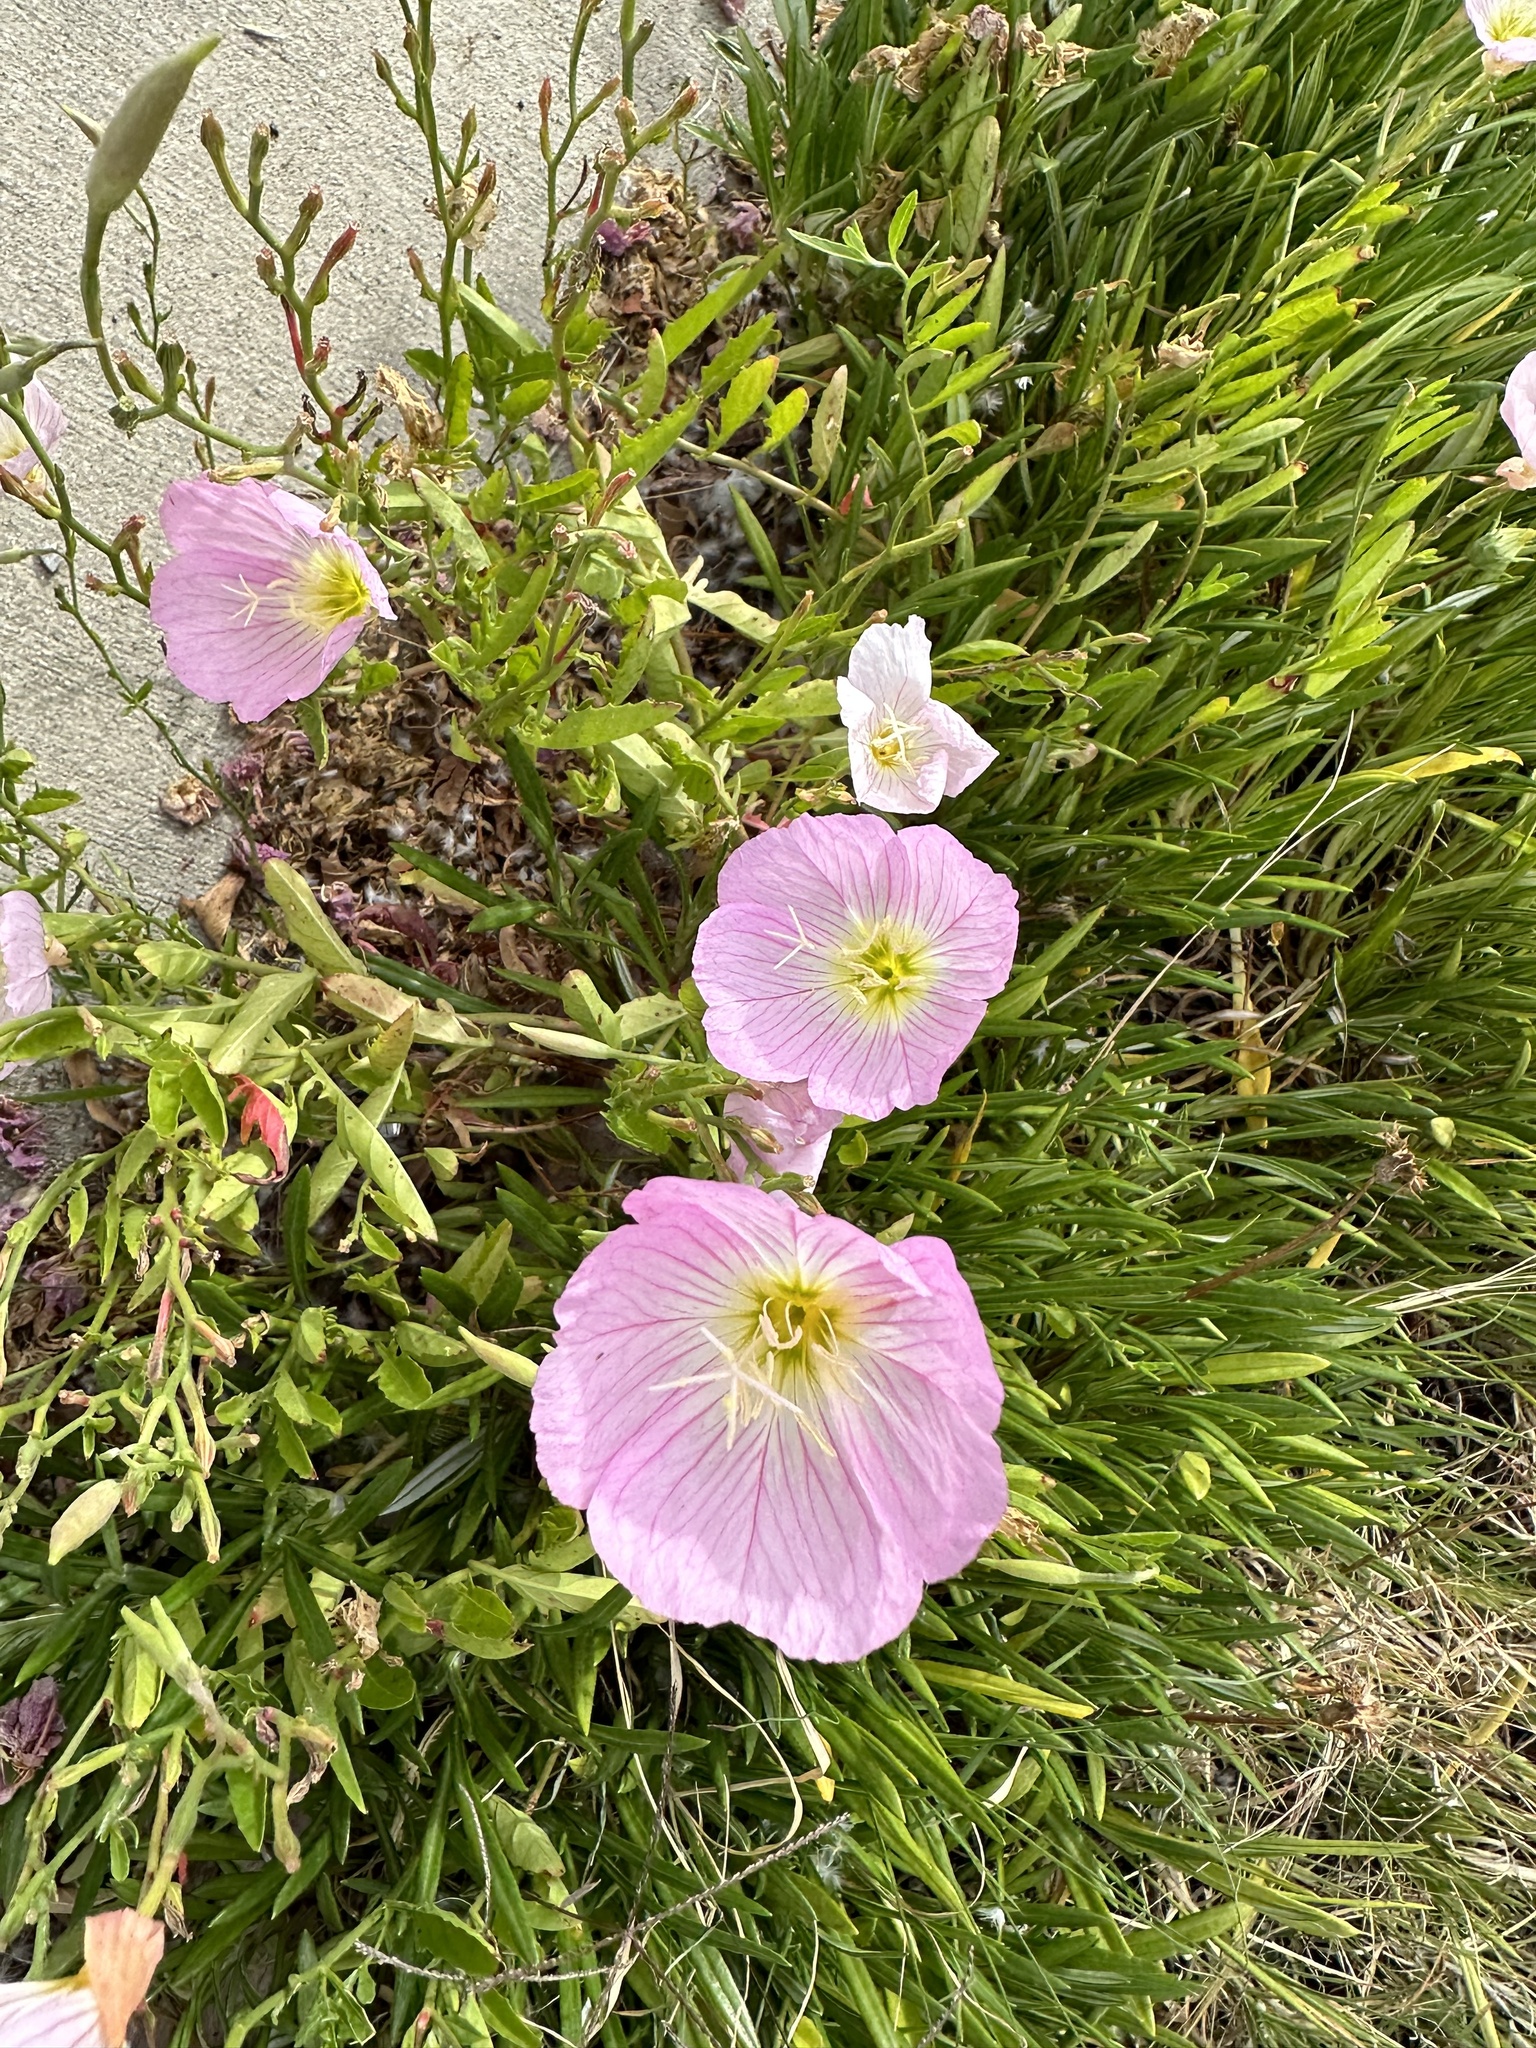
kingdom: Plantae
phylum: Tracheophyta
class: Magnoliopsida
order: Myrtales
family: Onagraceae
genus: Oenothera
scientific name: Oenothera speciosa
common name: White evening-primrose
